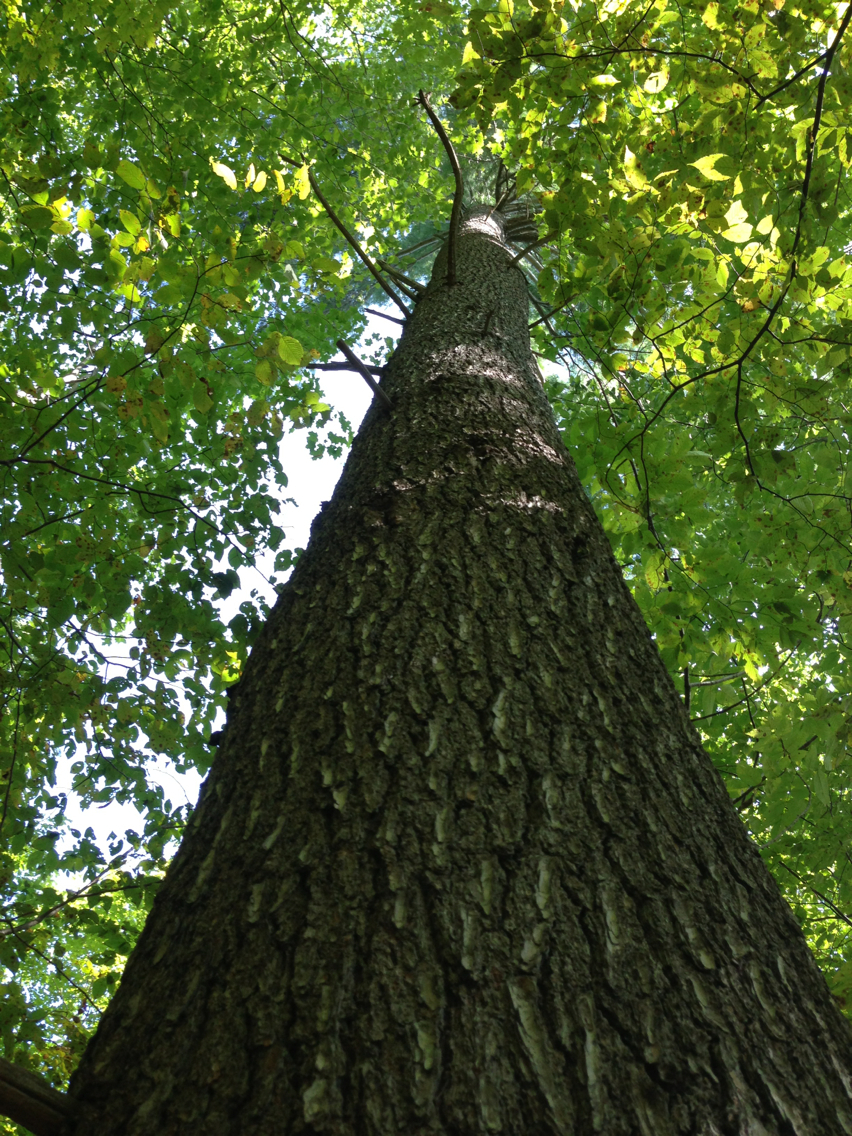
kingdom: Plantae
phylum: Tracheophyta
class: Pinopsida
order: Pinales
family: Pinaceae
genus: Pinus
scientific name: Pinus strobus
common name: Weymouth pine
